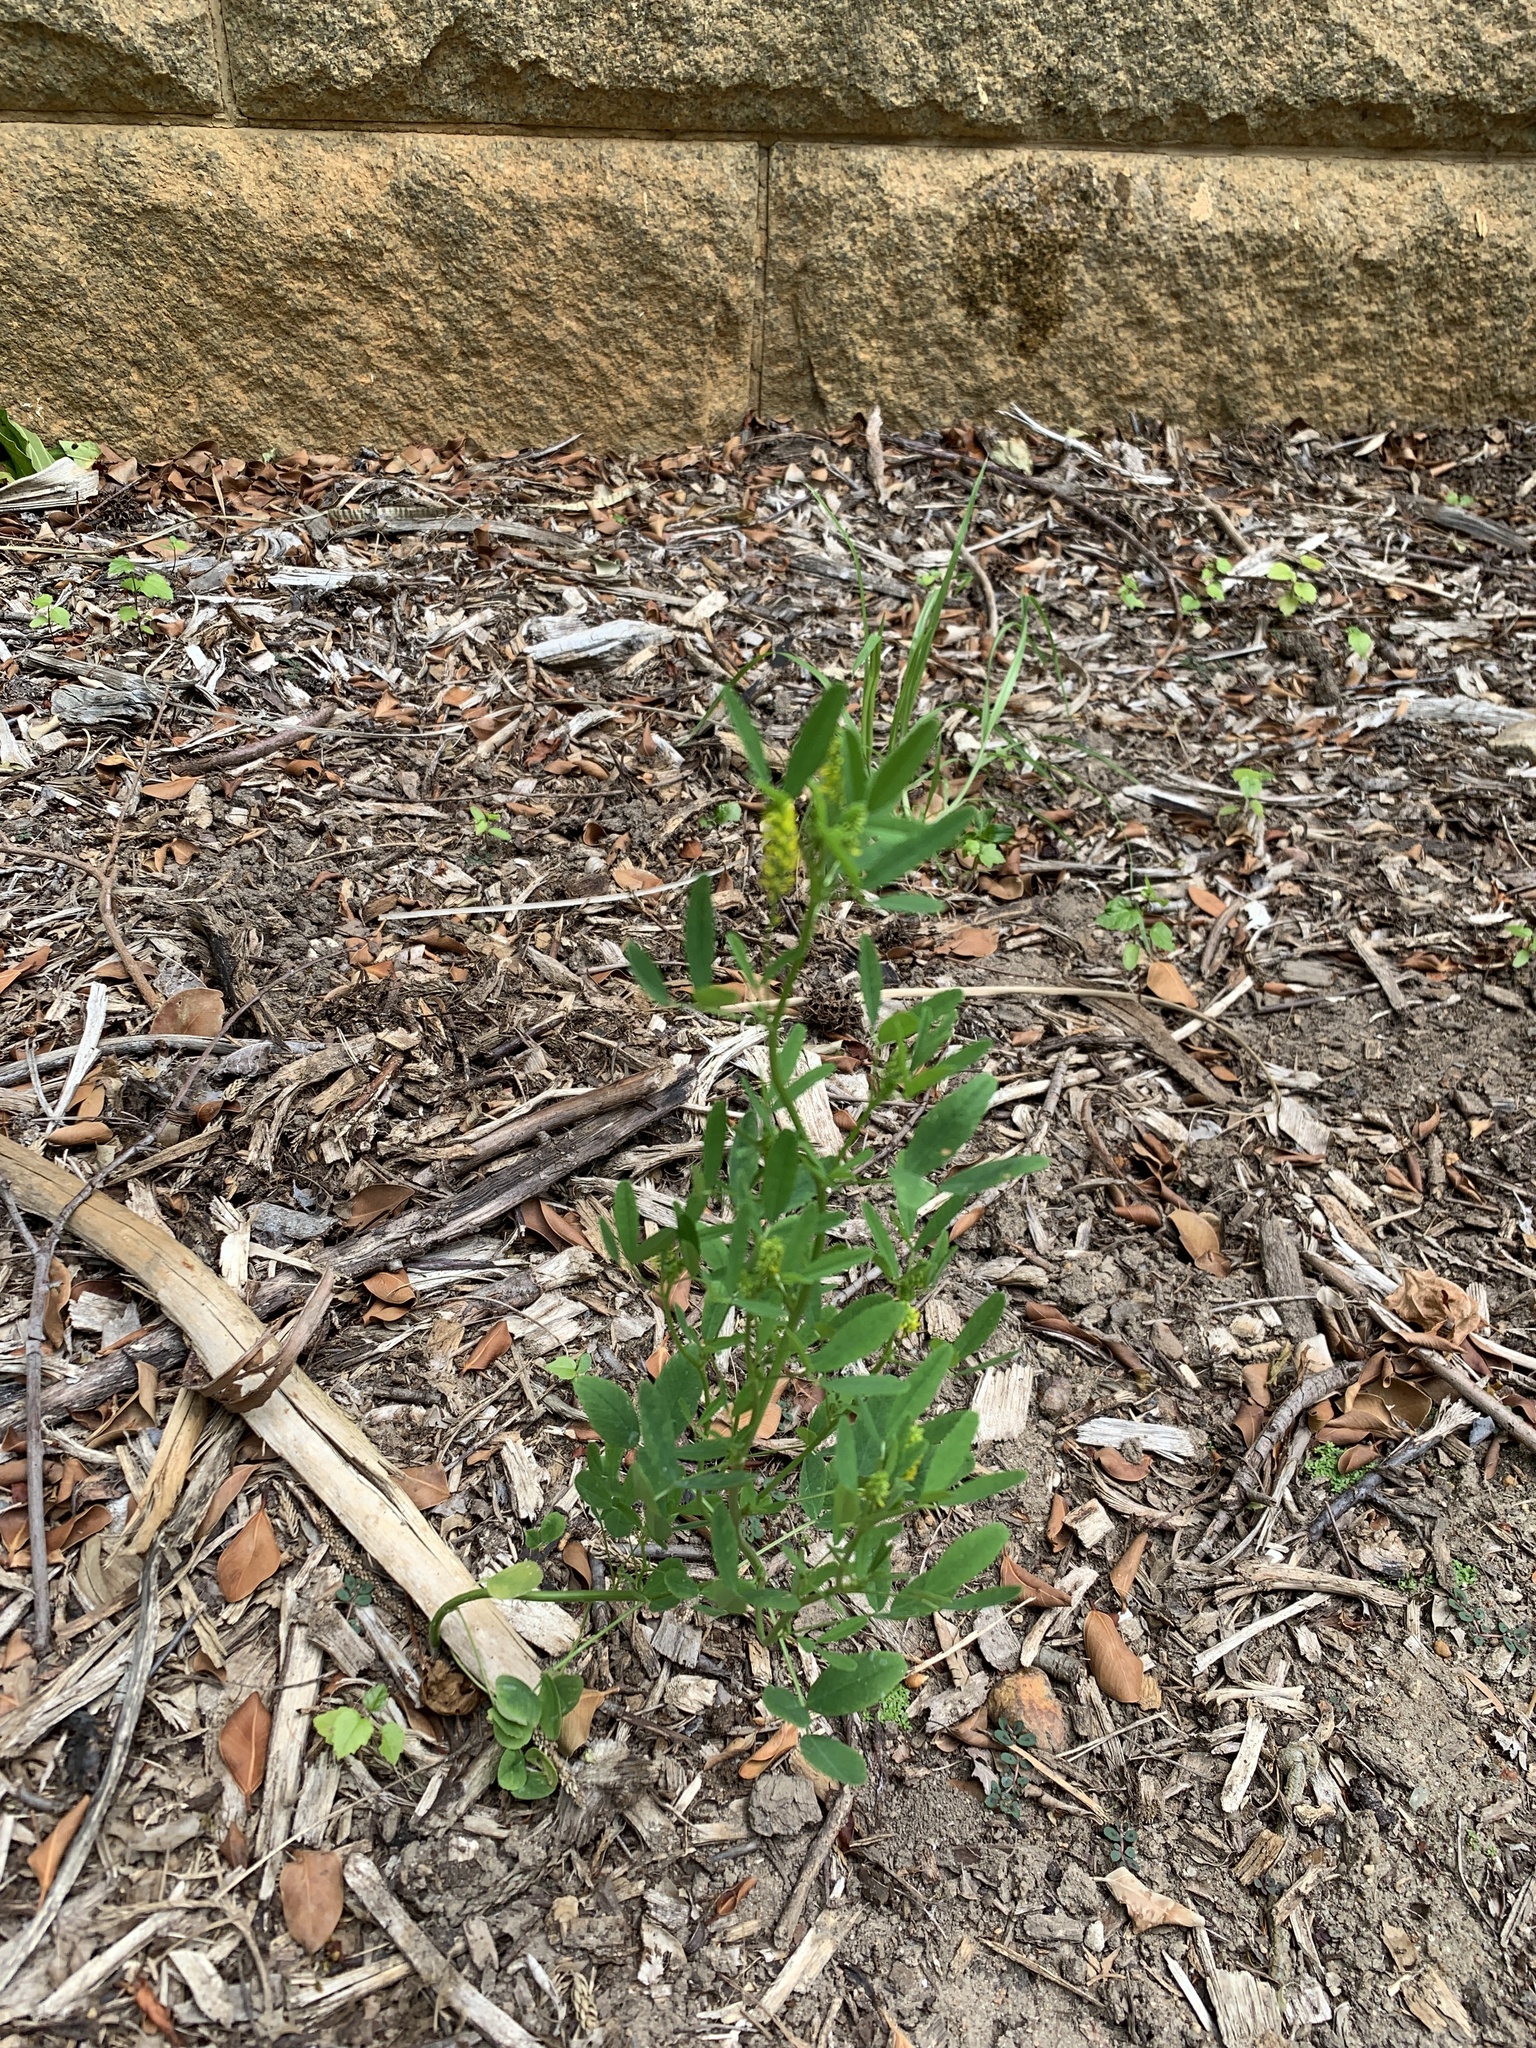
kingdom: Plantae
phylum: Tracheophyta
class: Magnoliopsida
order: Fabales
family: Fabaceae
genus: Melilotus
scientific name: Melilotus indicus
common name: Small melilot
